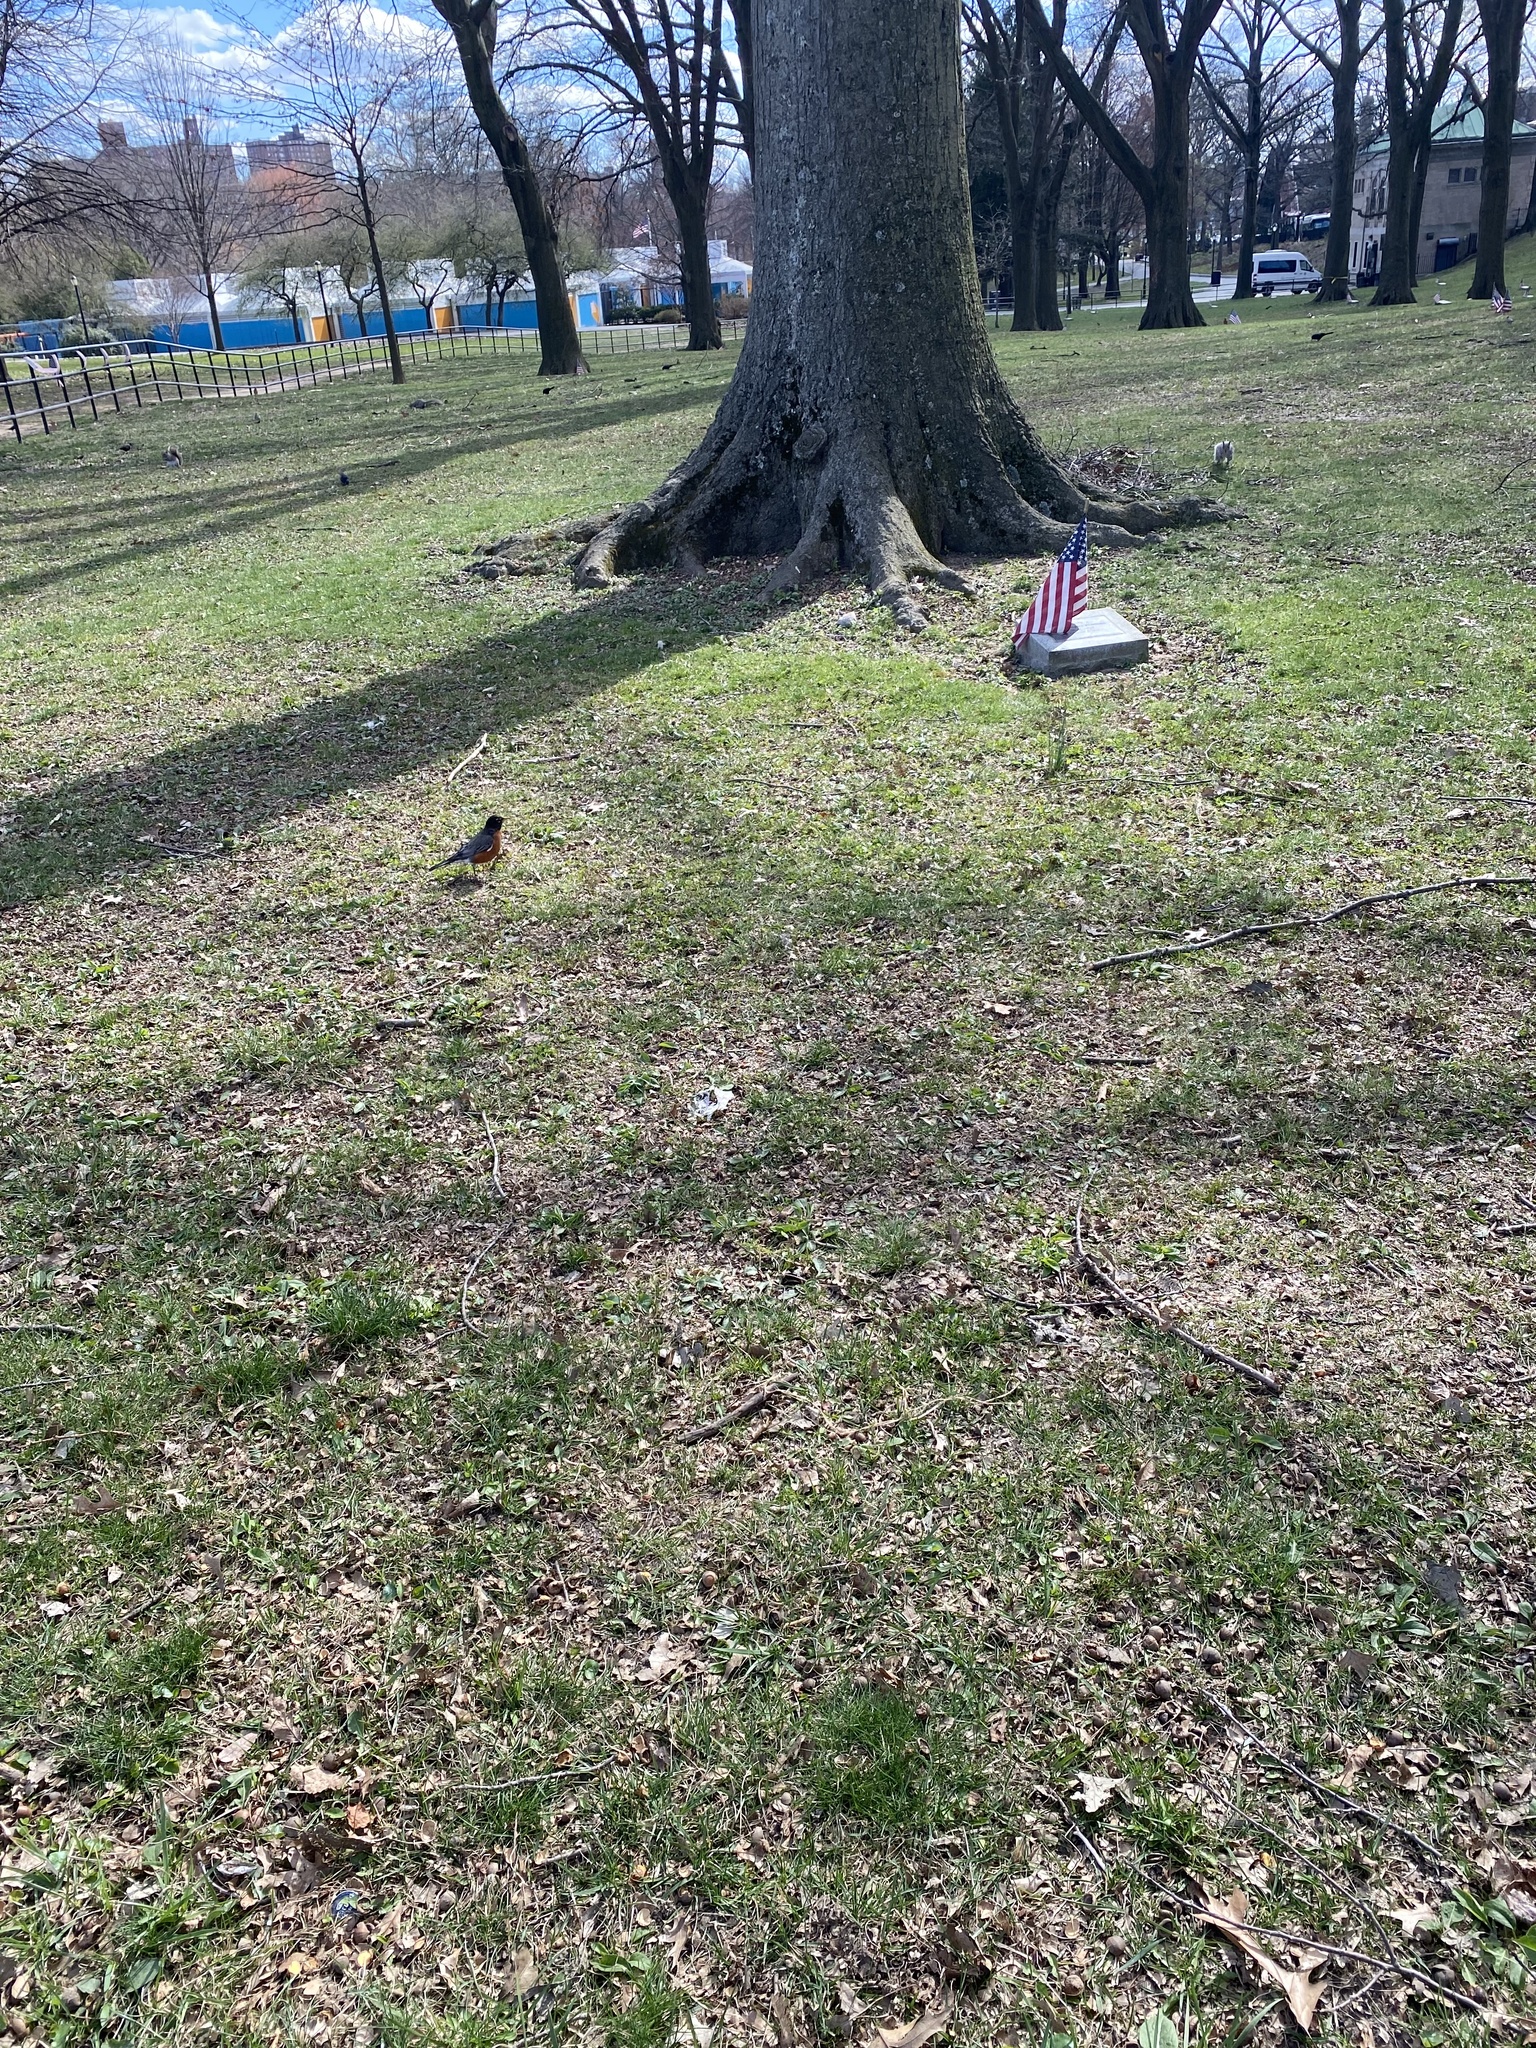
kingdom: Animalia
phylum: Chordata
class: Aves
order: Passeriformes
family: Turdidae
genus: Turdus
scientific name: Turdus migratorius
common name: American robin
